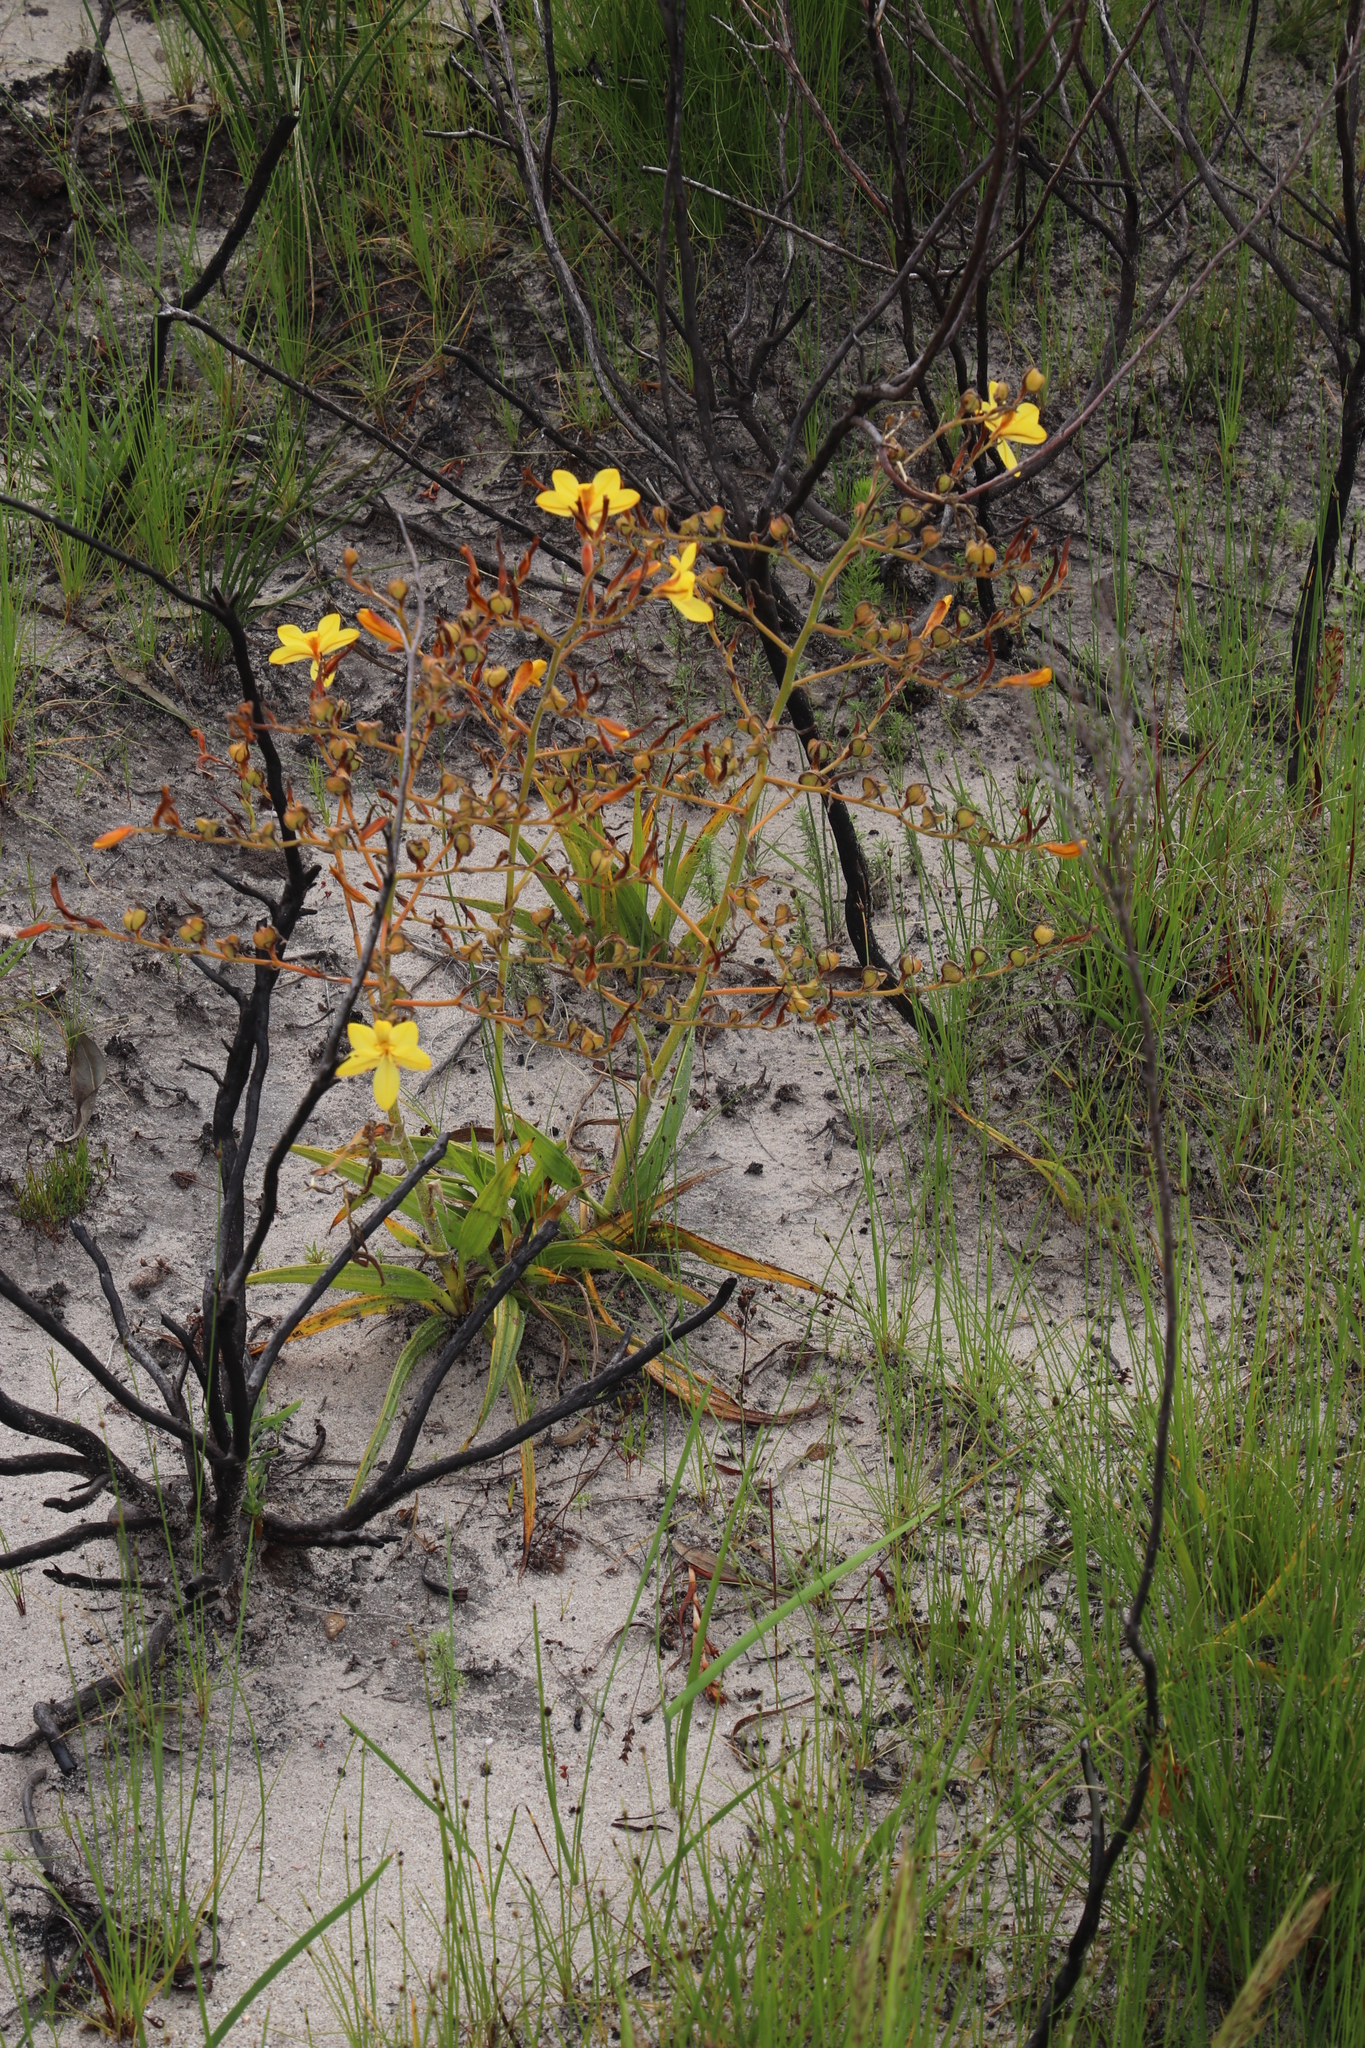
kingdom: Plantae
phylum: Tracheophyta
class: Liliopsida
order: Commelinales
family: Haemodoraceae
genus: Wachendorfia
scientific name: Wachendorfia paniculata
